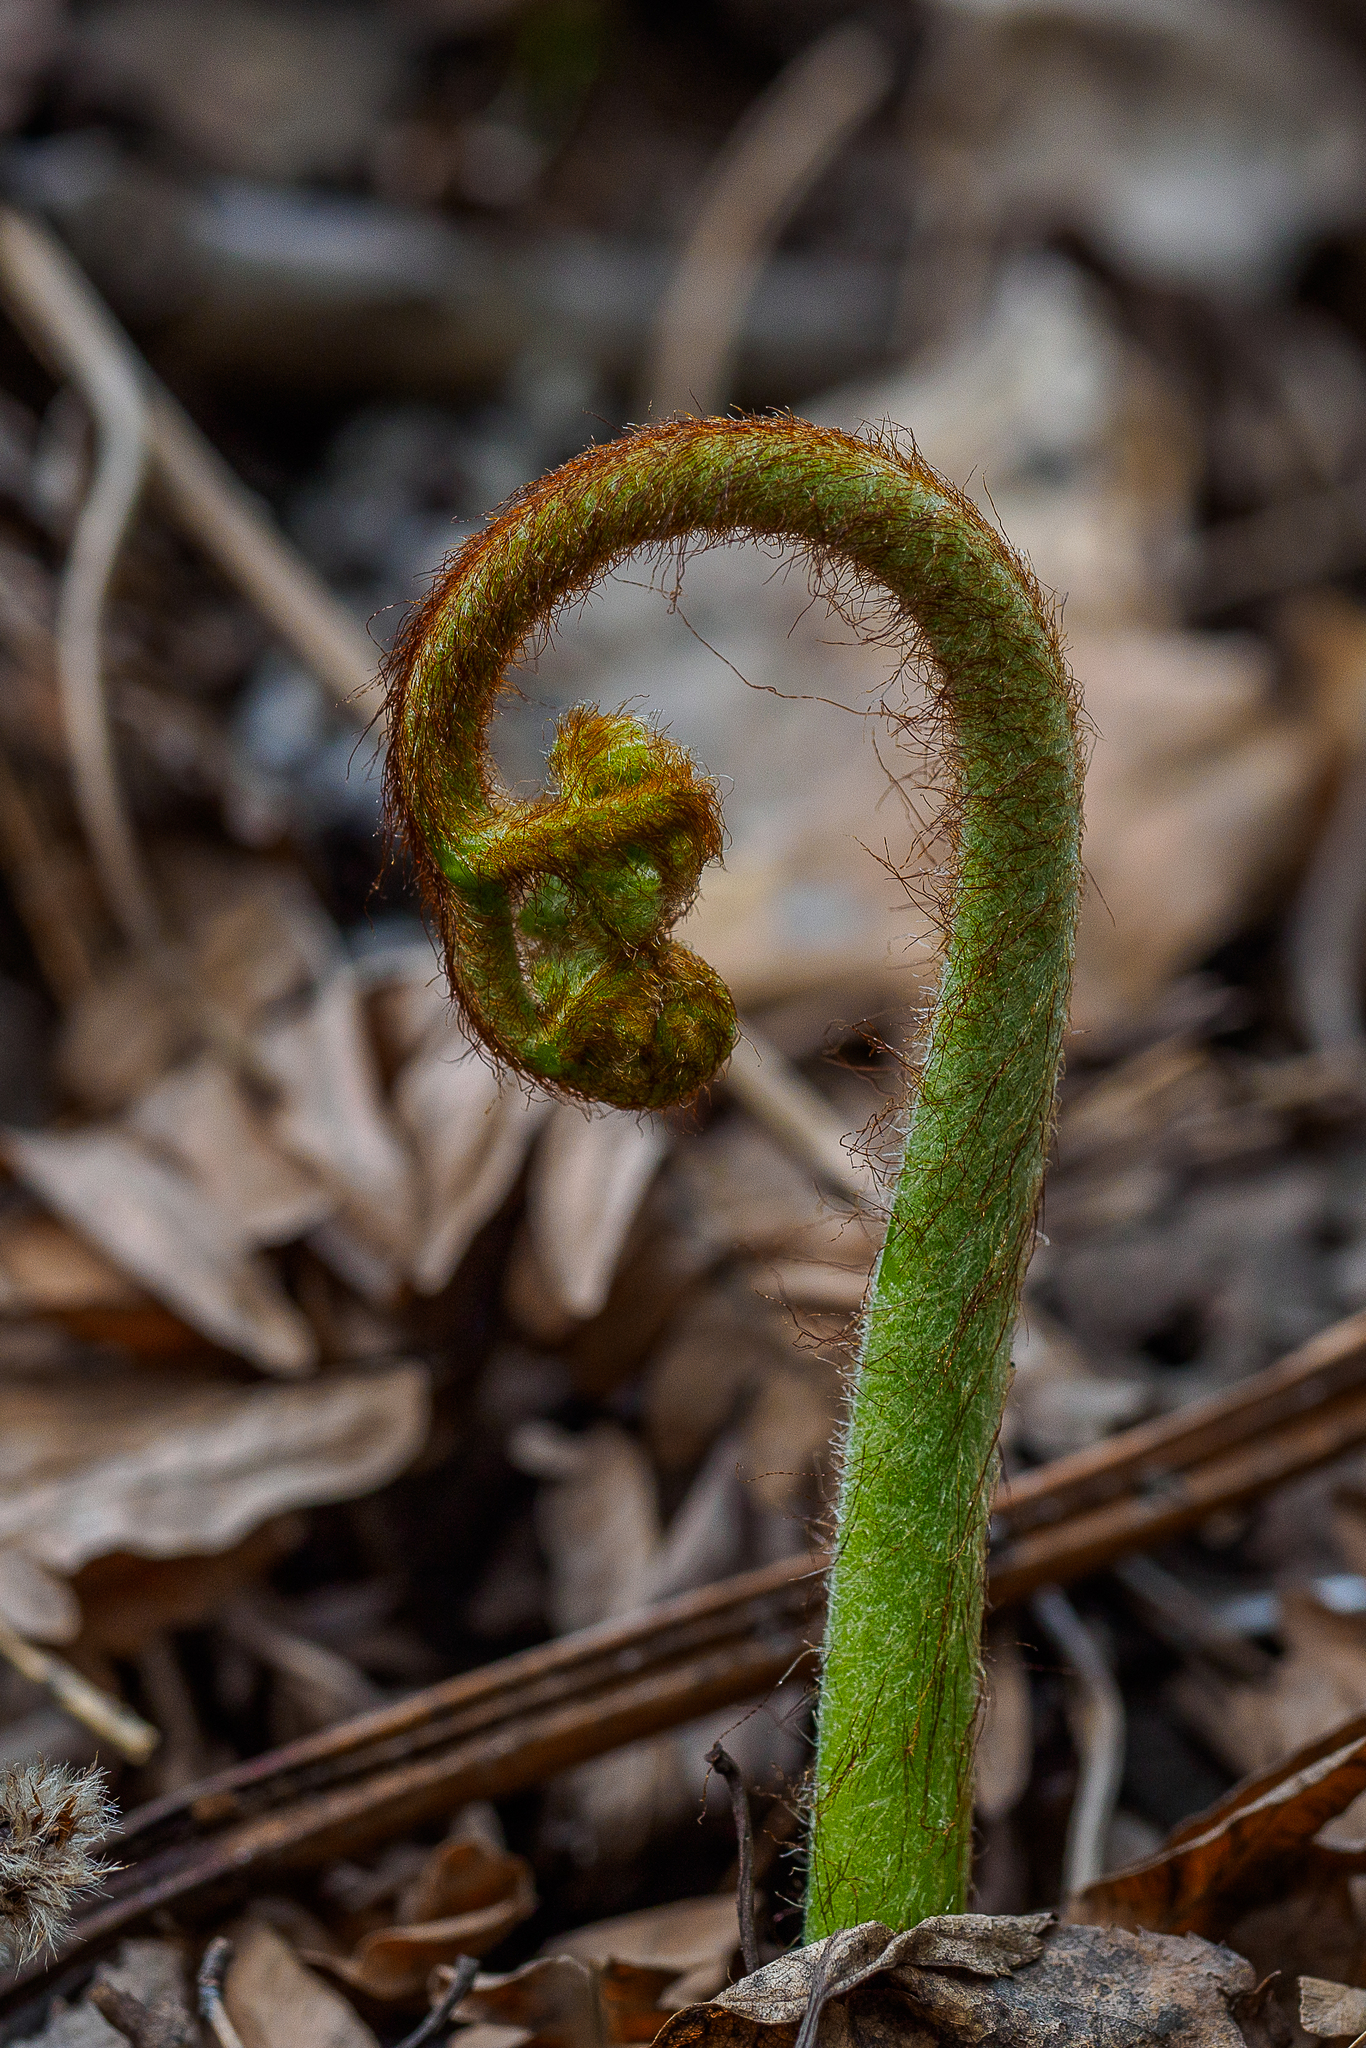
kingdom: Plantae
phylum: Tracheophyta
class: Polypodiopsida
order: Polypodiales
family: Dennstaedtiaceae
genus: Pteridium
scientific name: Pteridium aquilinum
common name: Bracken
